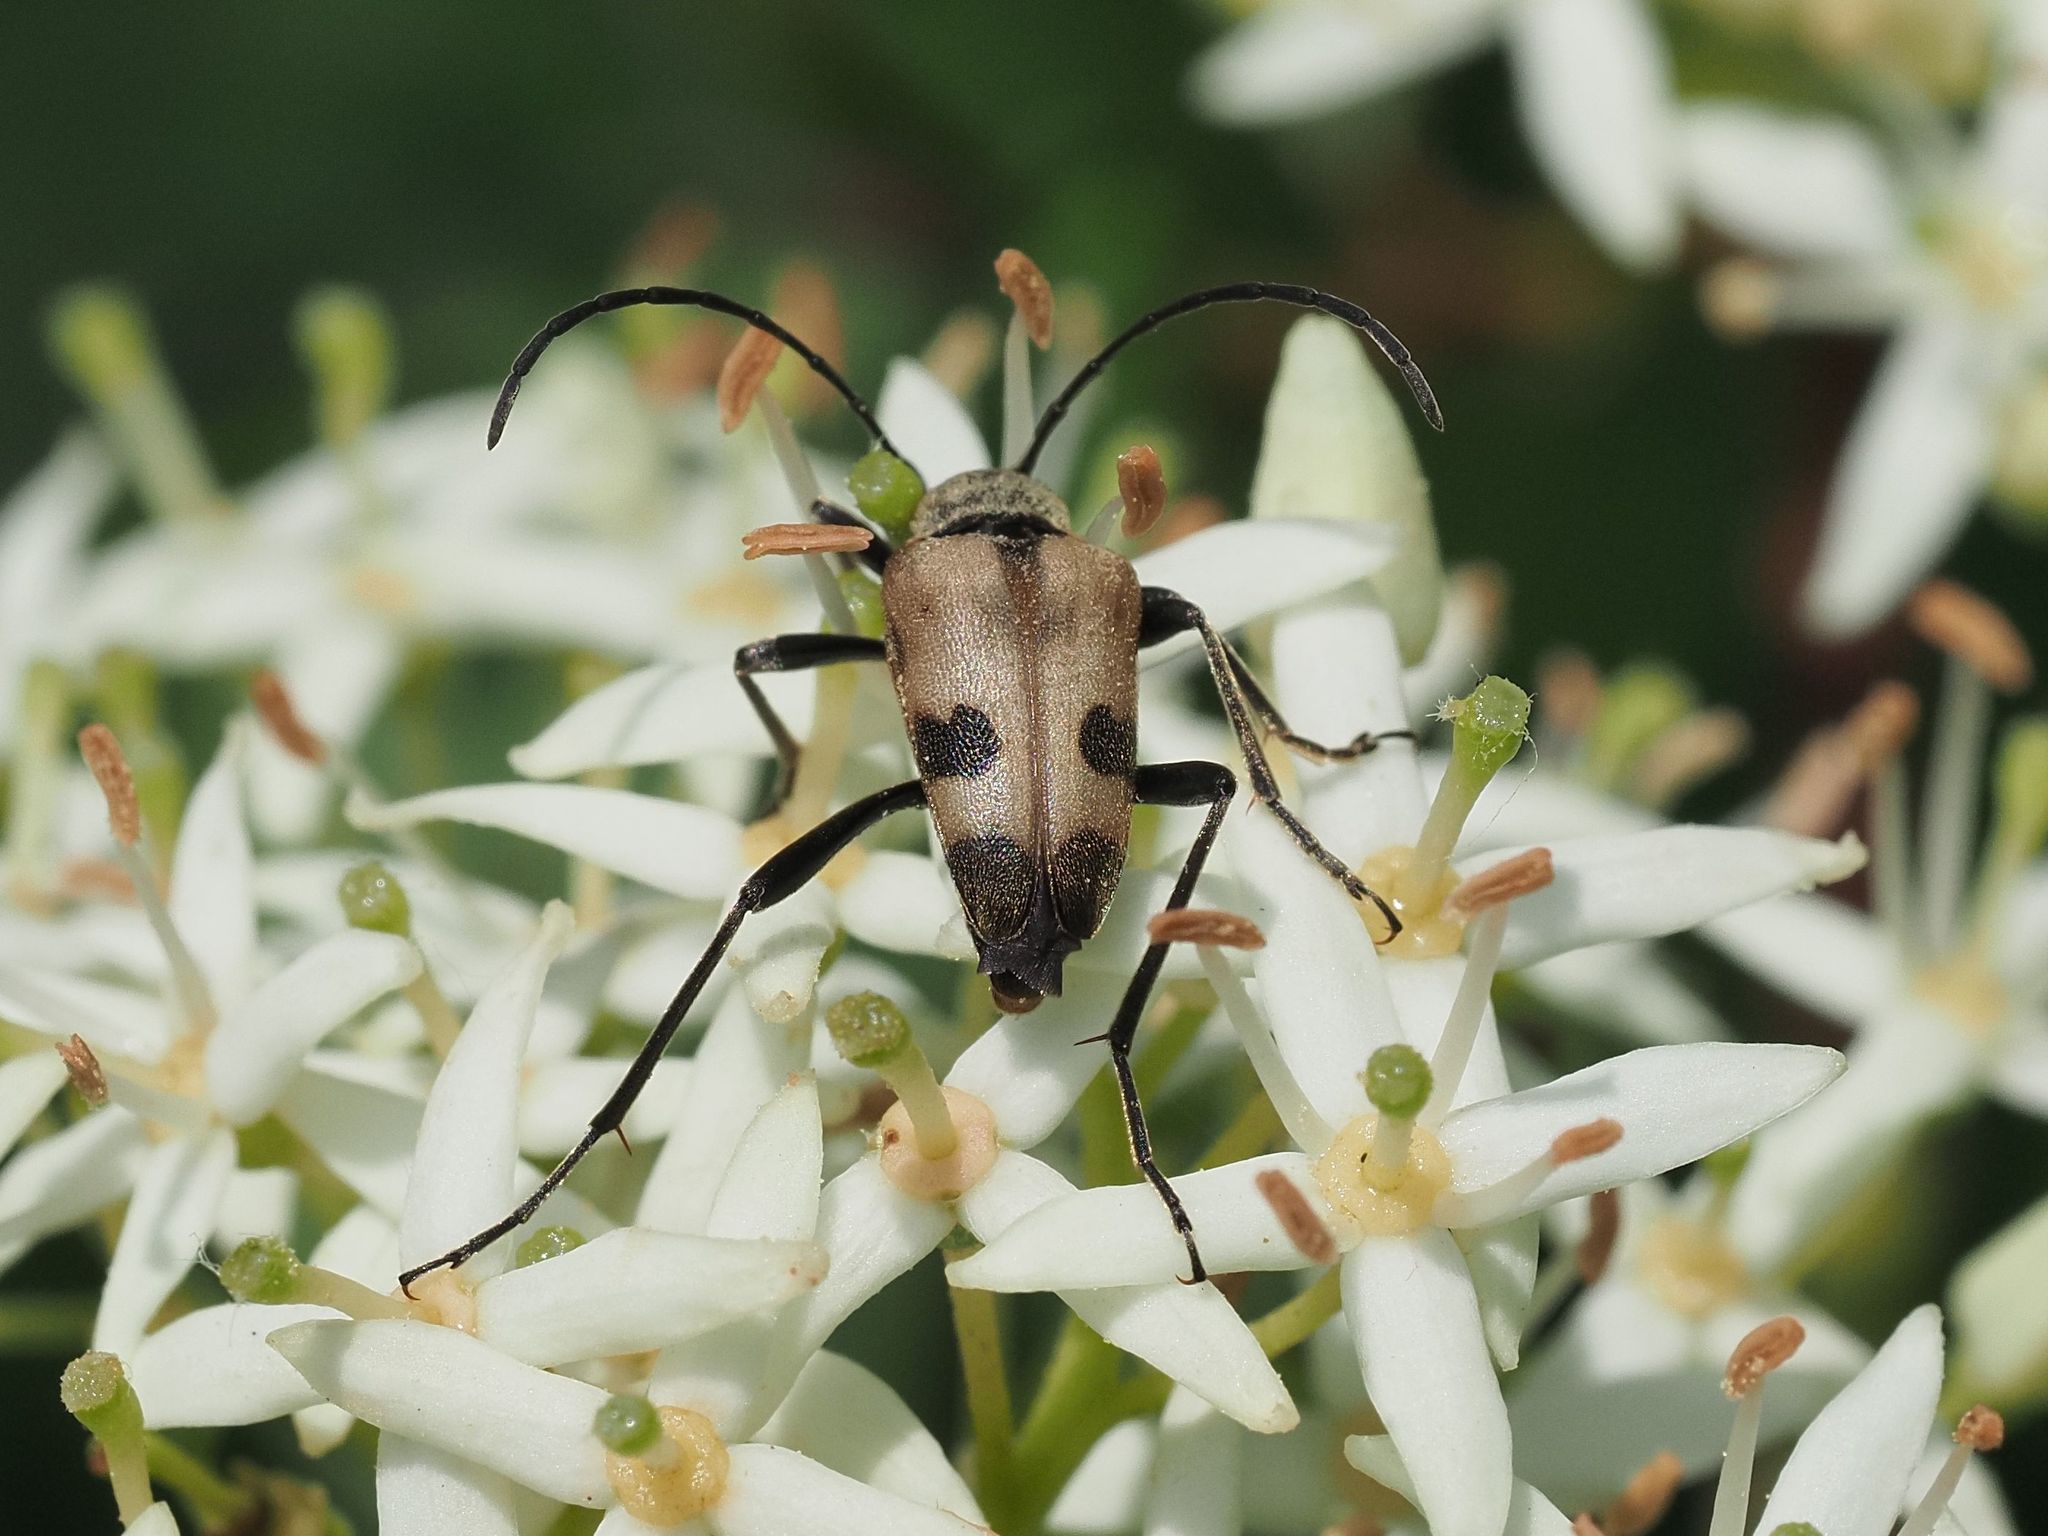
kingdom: Animalia
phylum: Arthropoda
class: Insecta
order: Coleoptera
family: Cerambycidae
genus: Pachytodes
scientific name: Pachytodes cerambyciformis
